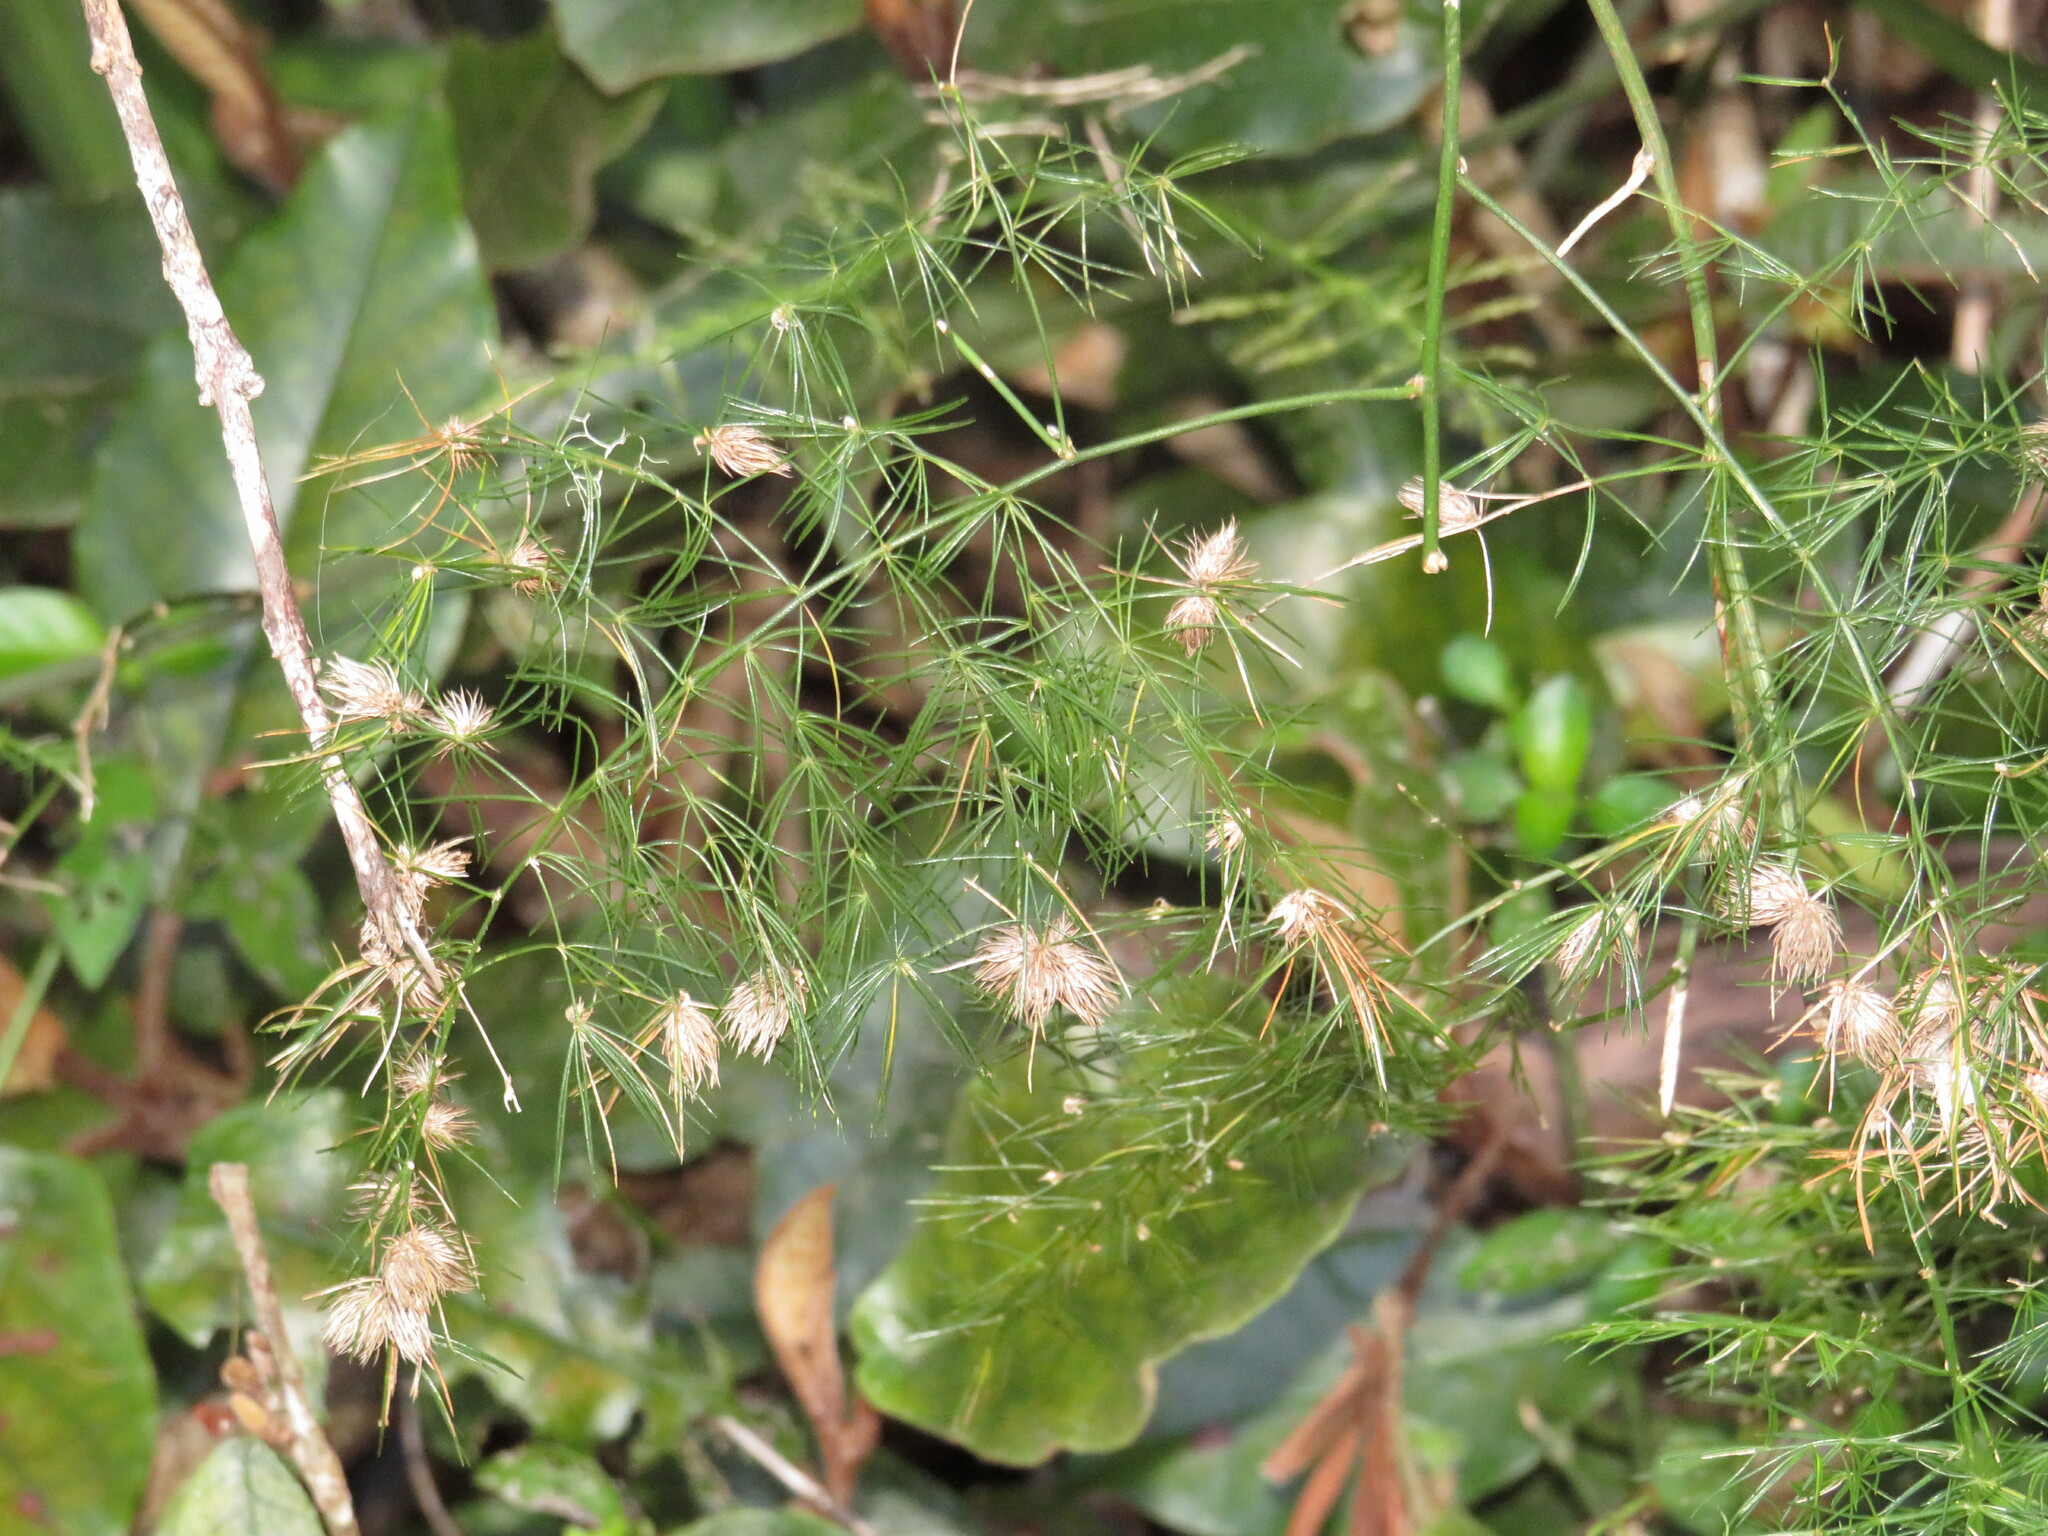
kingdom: Plantae
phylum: Tracheophyta
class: Liliopsida
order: Asparagales
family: Asparagaceae
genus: Asparagus
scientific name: Asparagus setaceus
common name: Common asparagus fern
